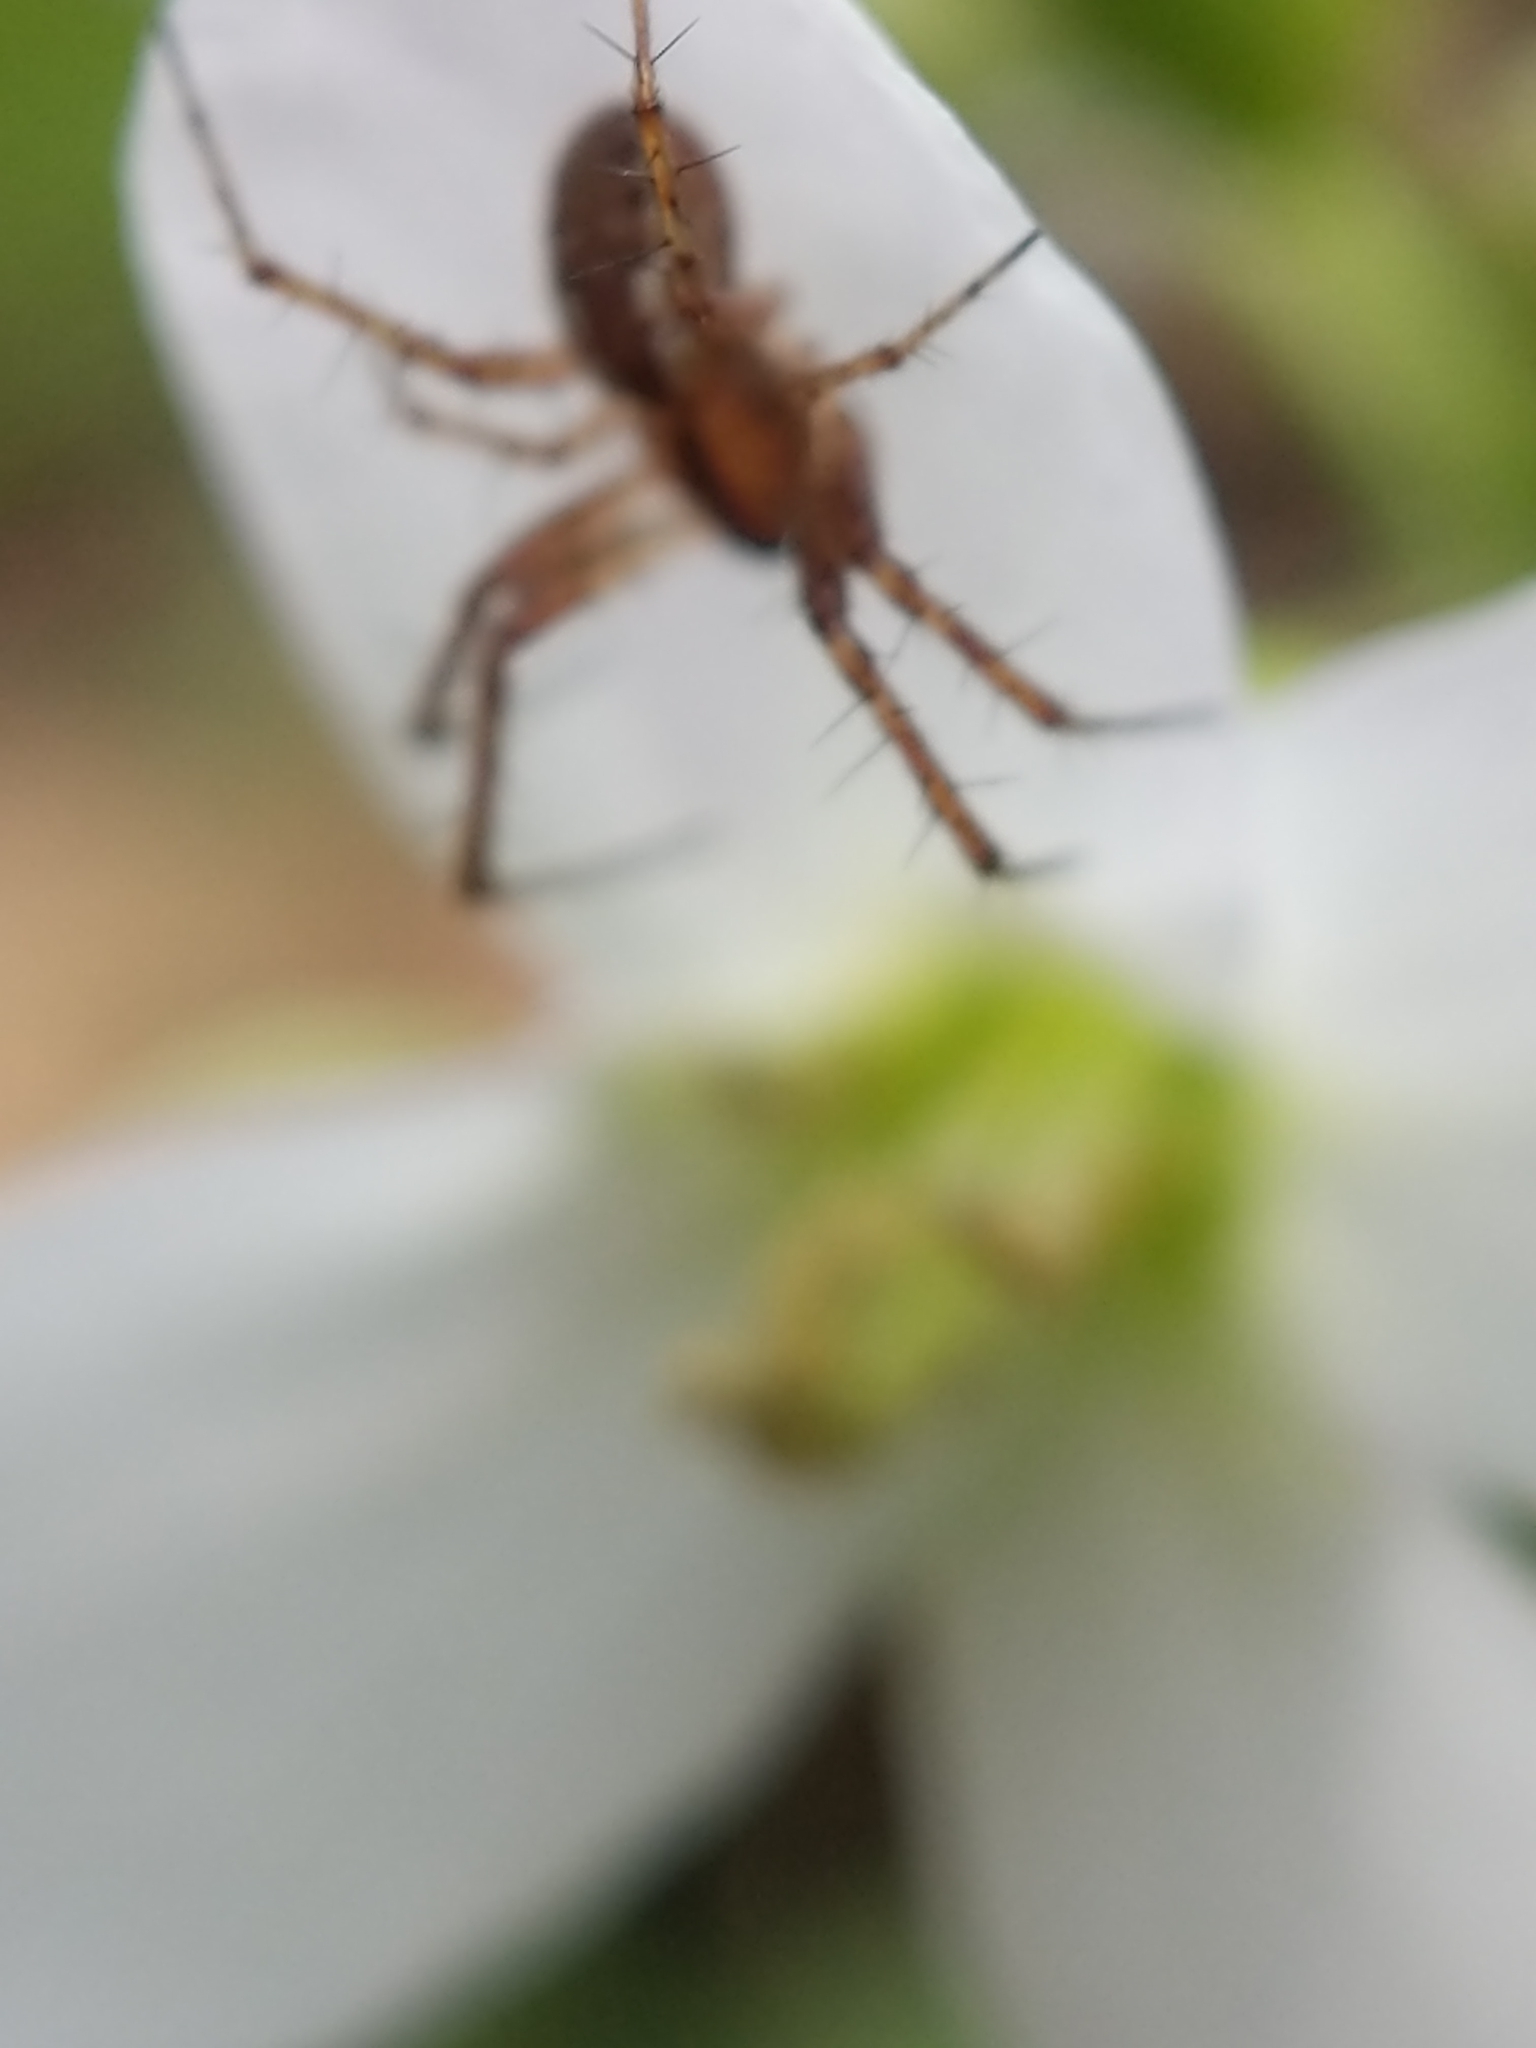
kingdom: Animalia
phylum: Arthropoda
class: Arachnida
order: Araneae
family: Araneidae
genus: Mangora
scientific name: Mangora placida
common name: Tuft-legged orbweaver
